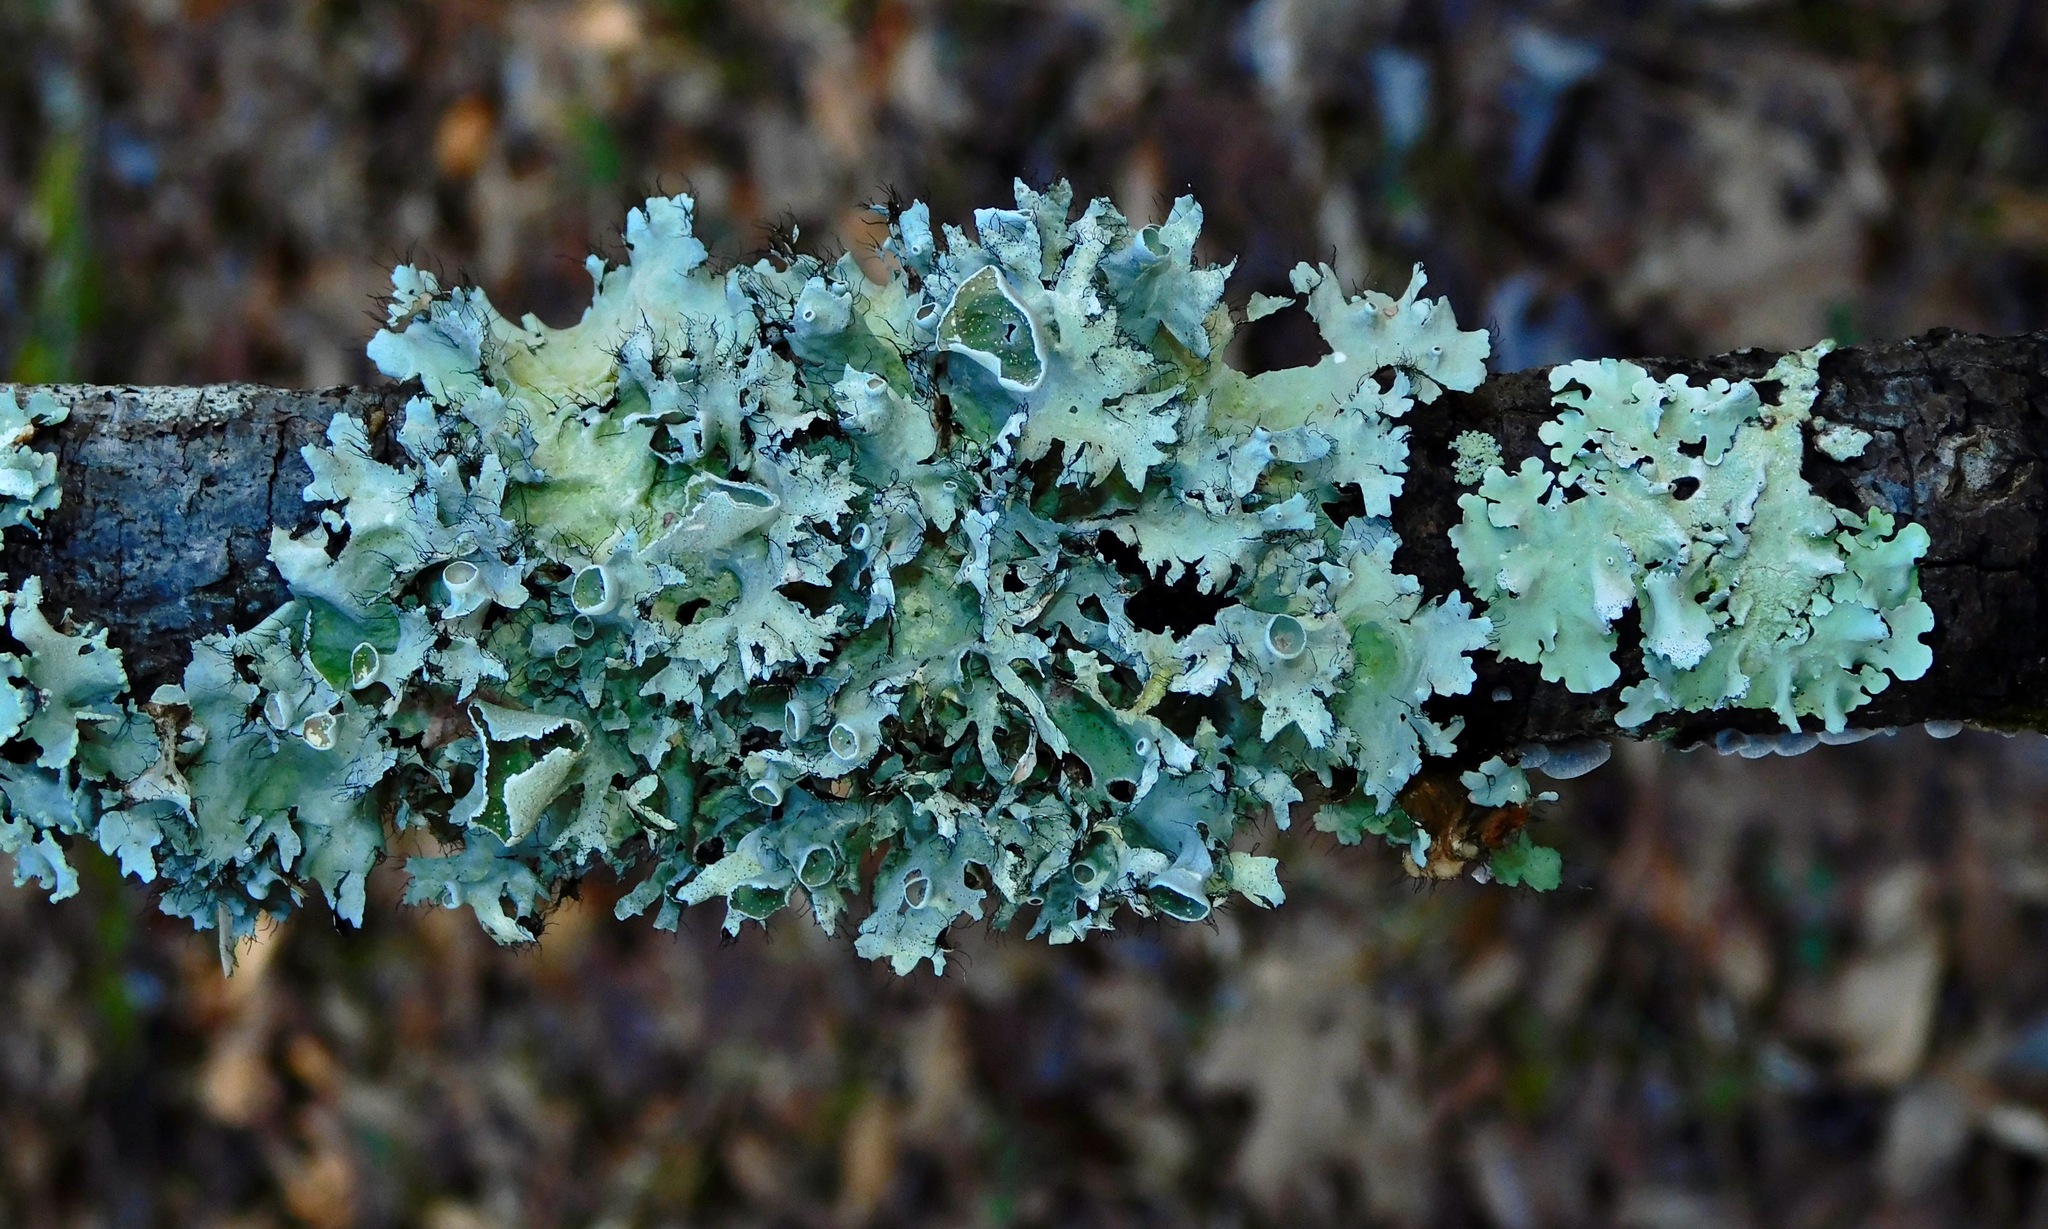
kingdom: Fungi
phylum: Ascomycota
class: Lecanoromycetes
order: Lecanorales
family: Parmeliaceae
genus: Parmotrema
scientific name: Parmotrema cetratum
